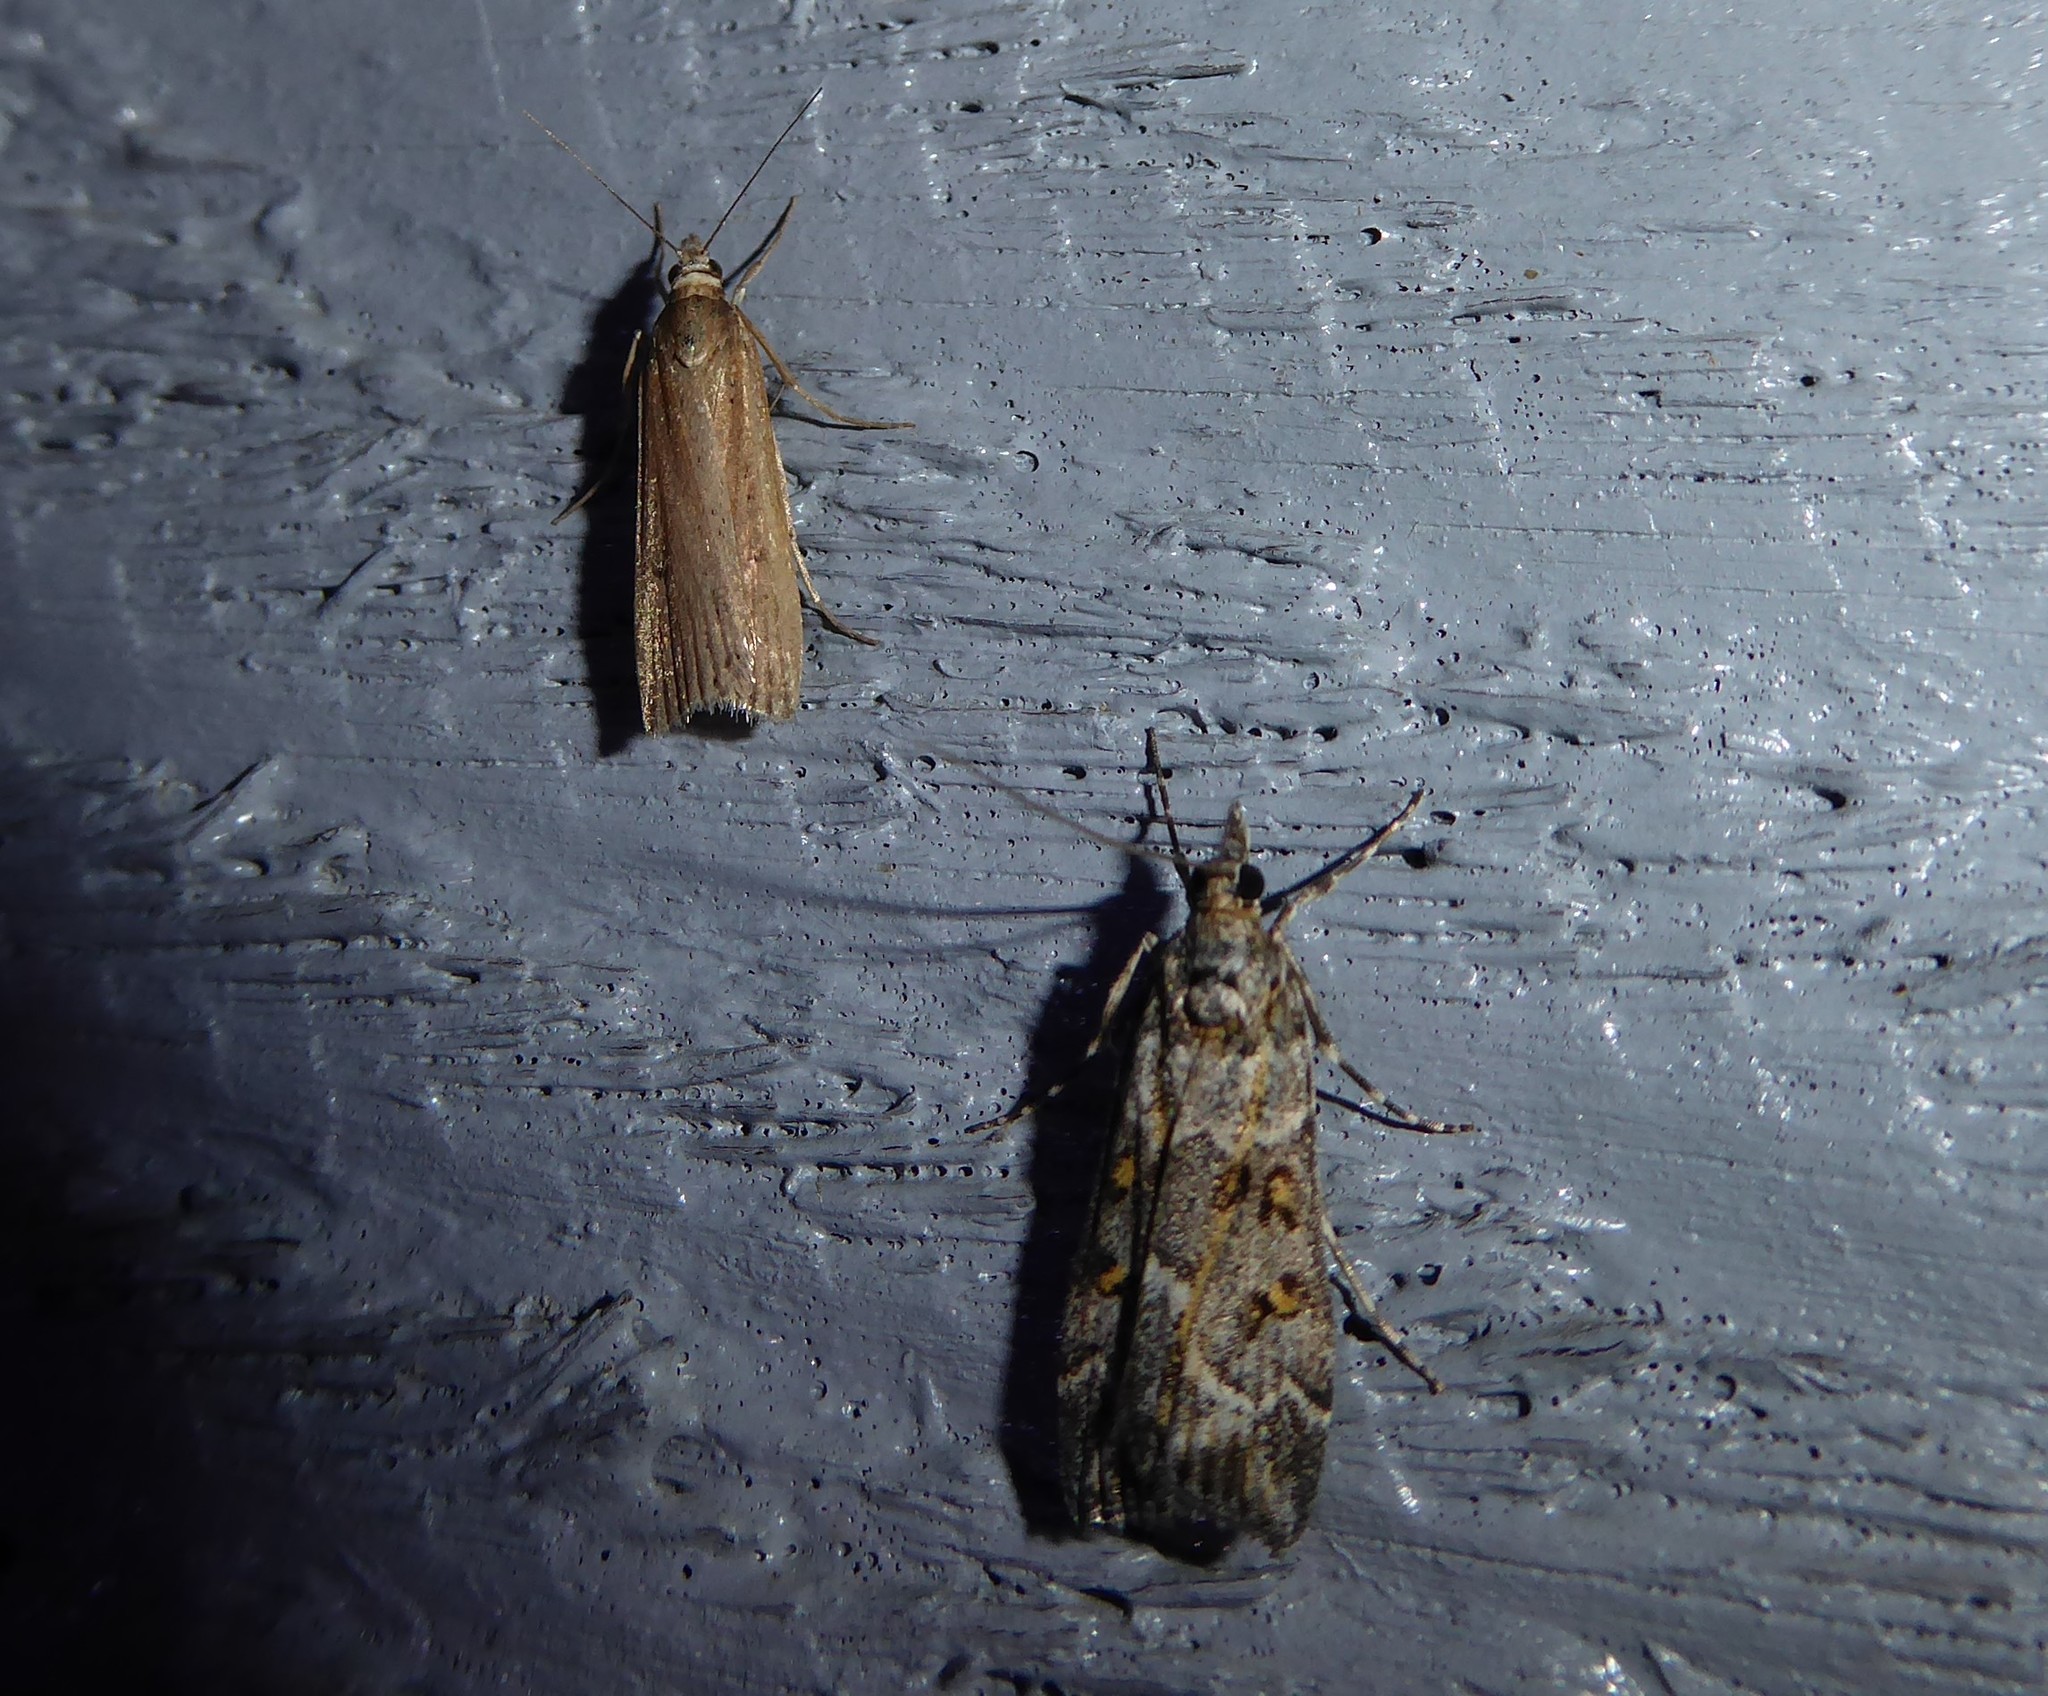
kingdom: Animalia
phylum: Arthropoda
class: Insecta
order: Lepidoptera
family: Crambidae
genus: Eudonia
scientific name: Eudonia diphtheralis
